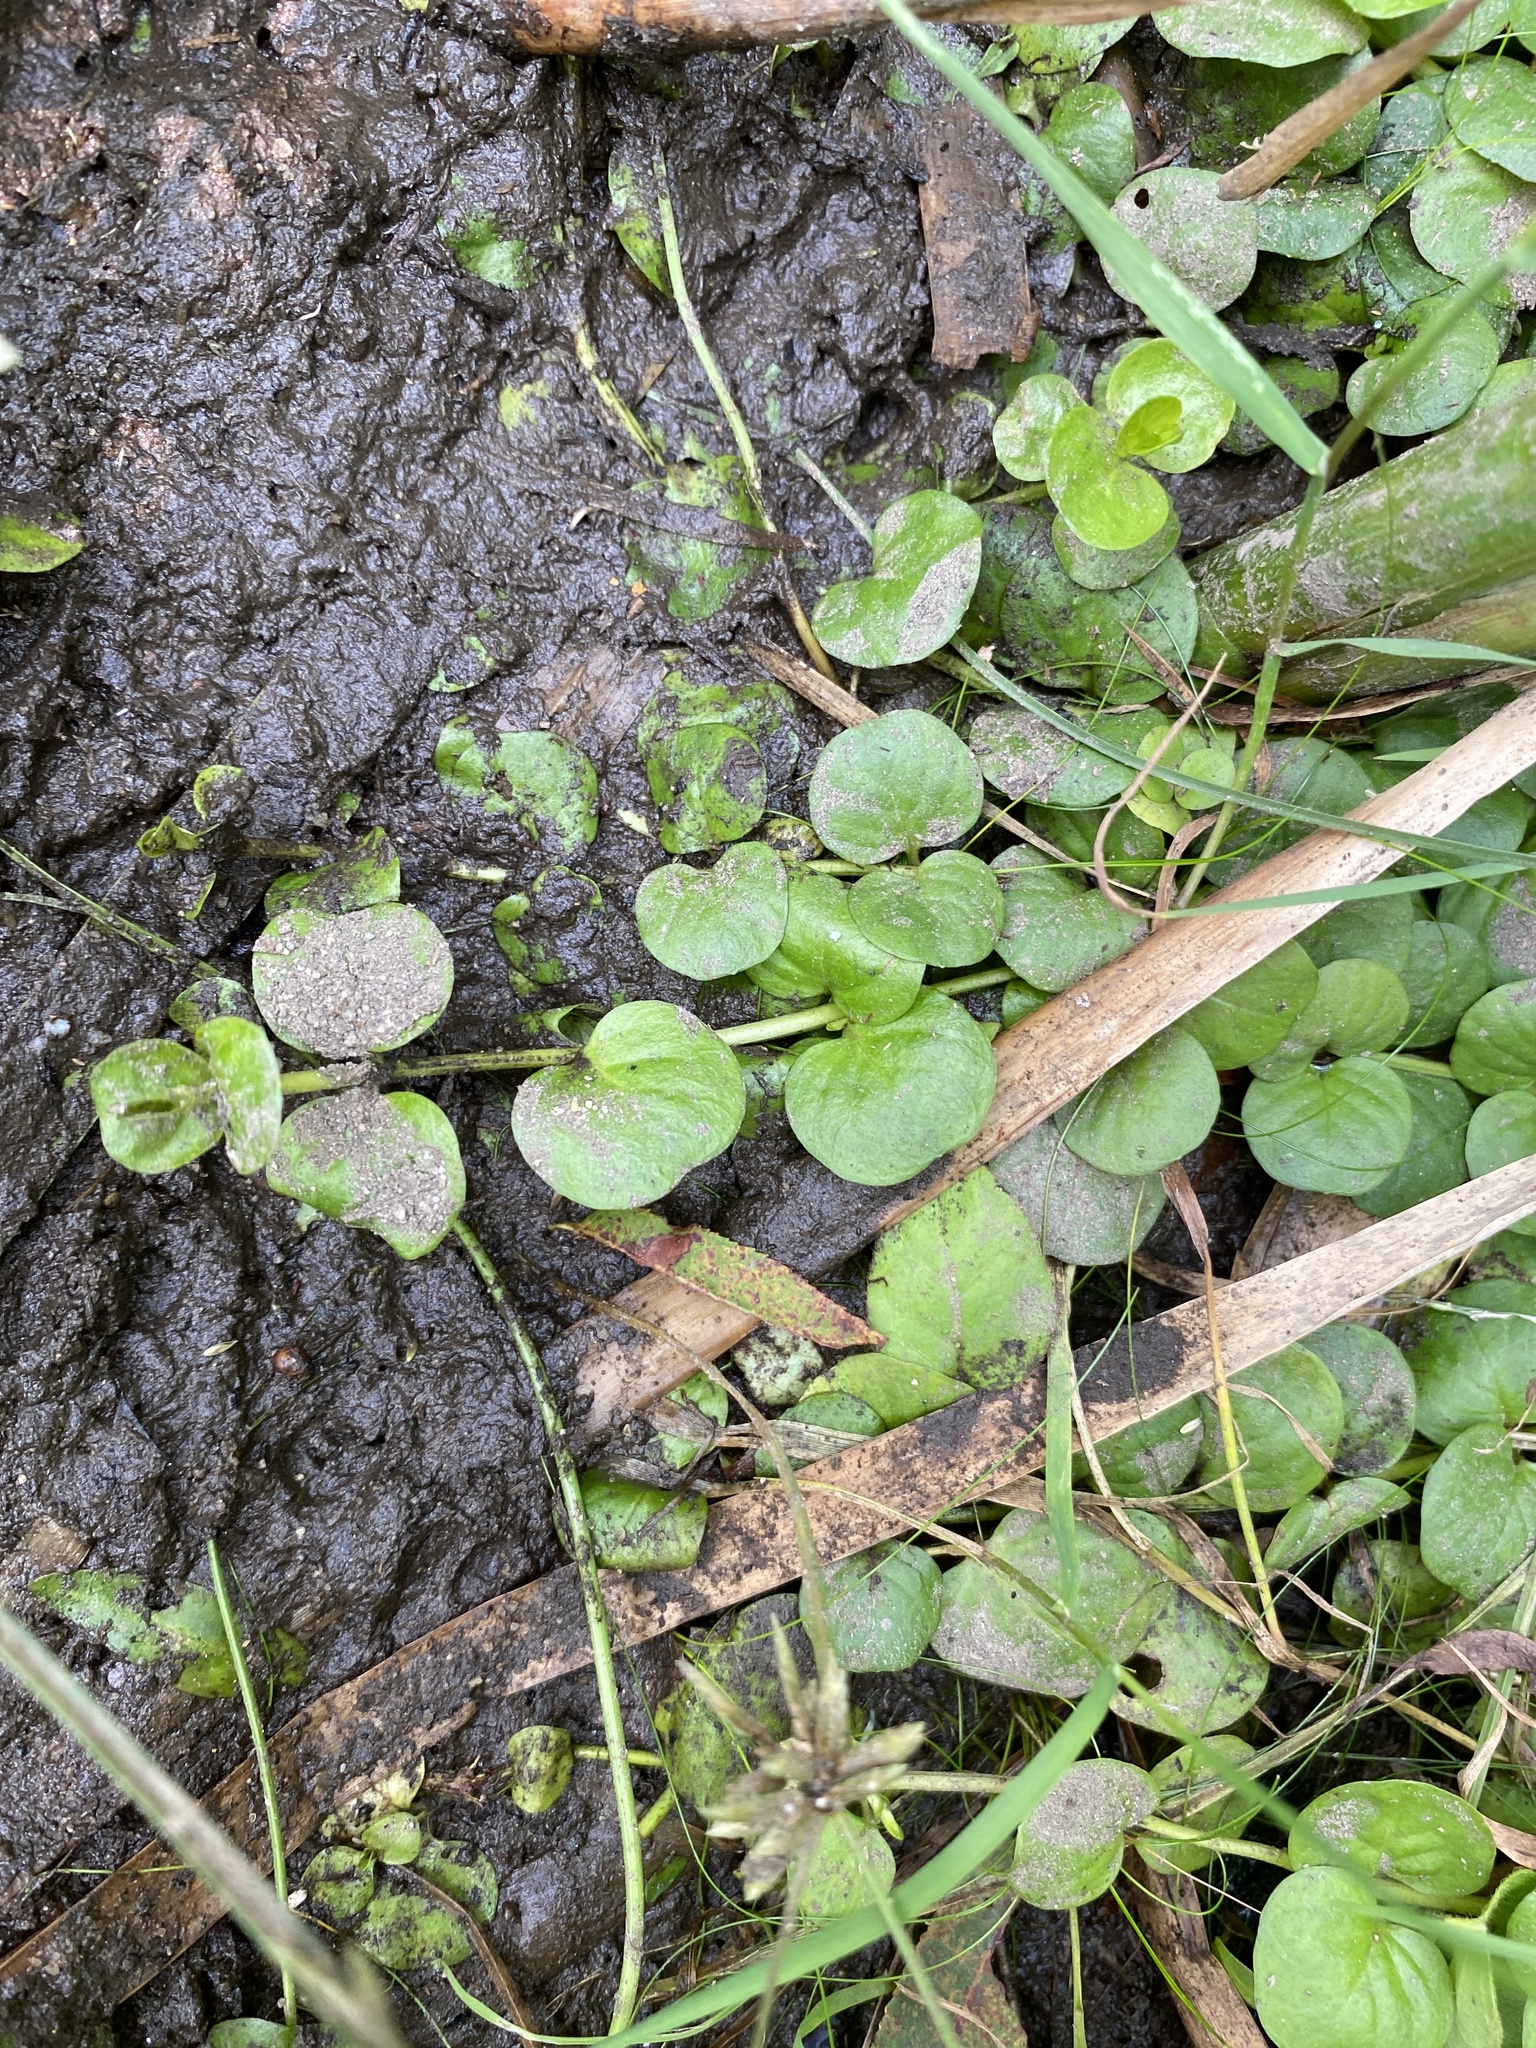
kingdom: Plantae
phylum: Tracheophyta
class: Magnoliopsida
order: Ericales
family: Primulaceae
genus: Lysimachia
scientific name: Lysimachia nummularia
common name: Moneywort
